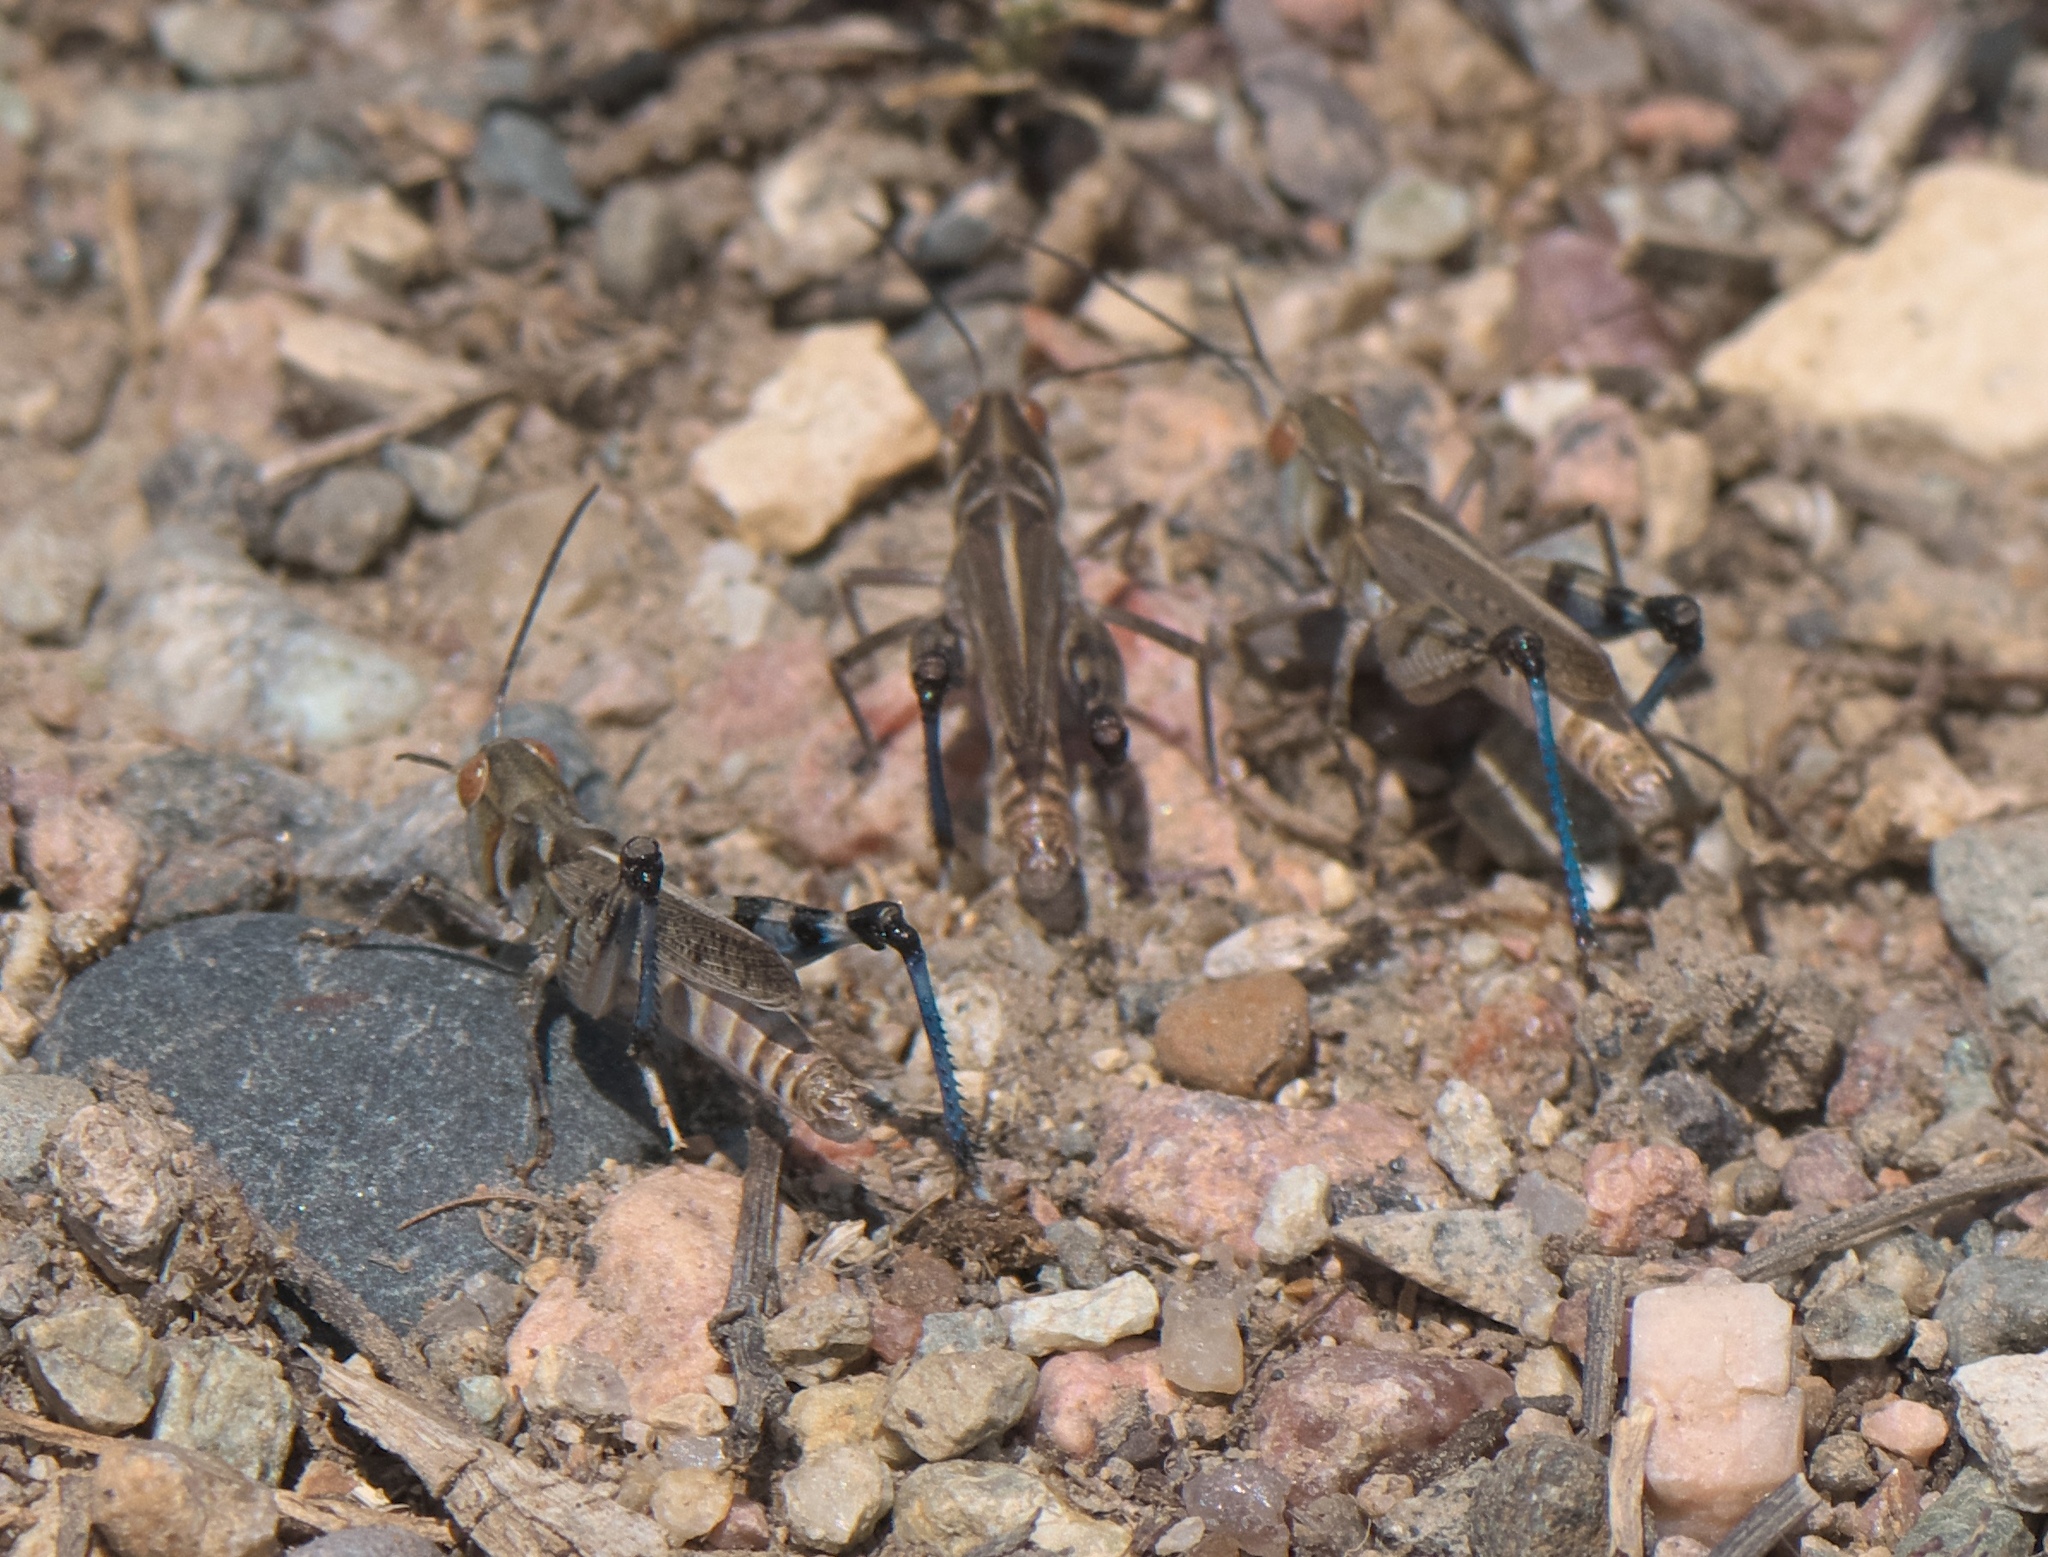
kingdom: Animalia
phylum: Arthropoda
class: Insecta
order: Orthoptera
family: Acrididae
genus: Aulocara
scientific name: Aulocara elliotti
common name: Bigheaded grasshopper
